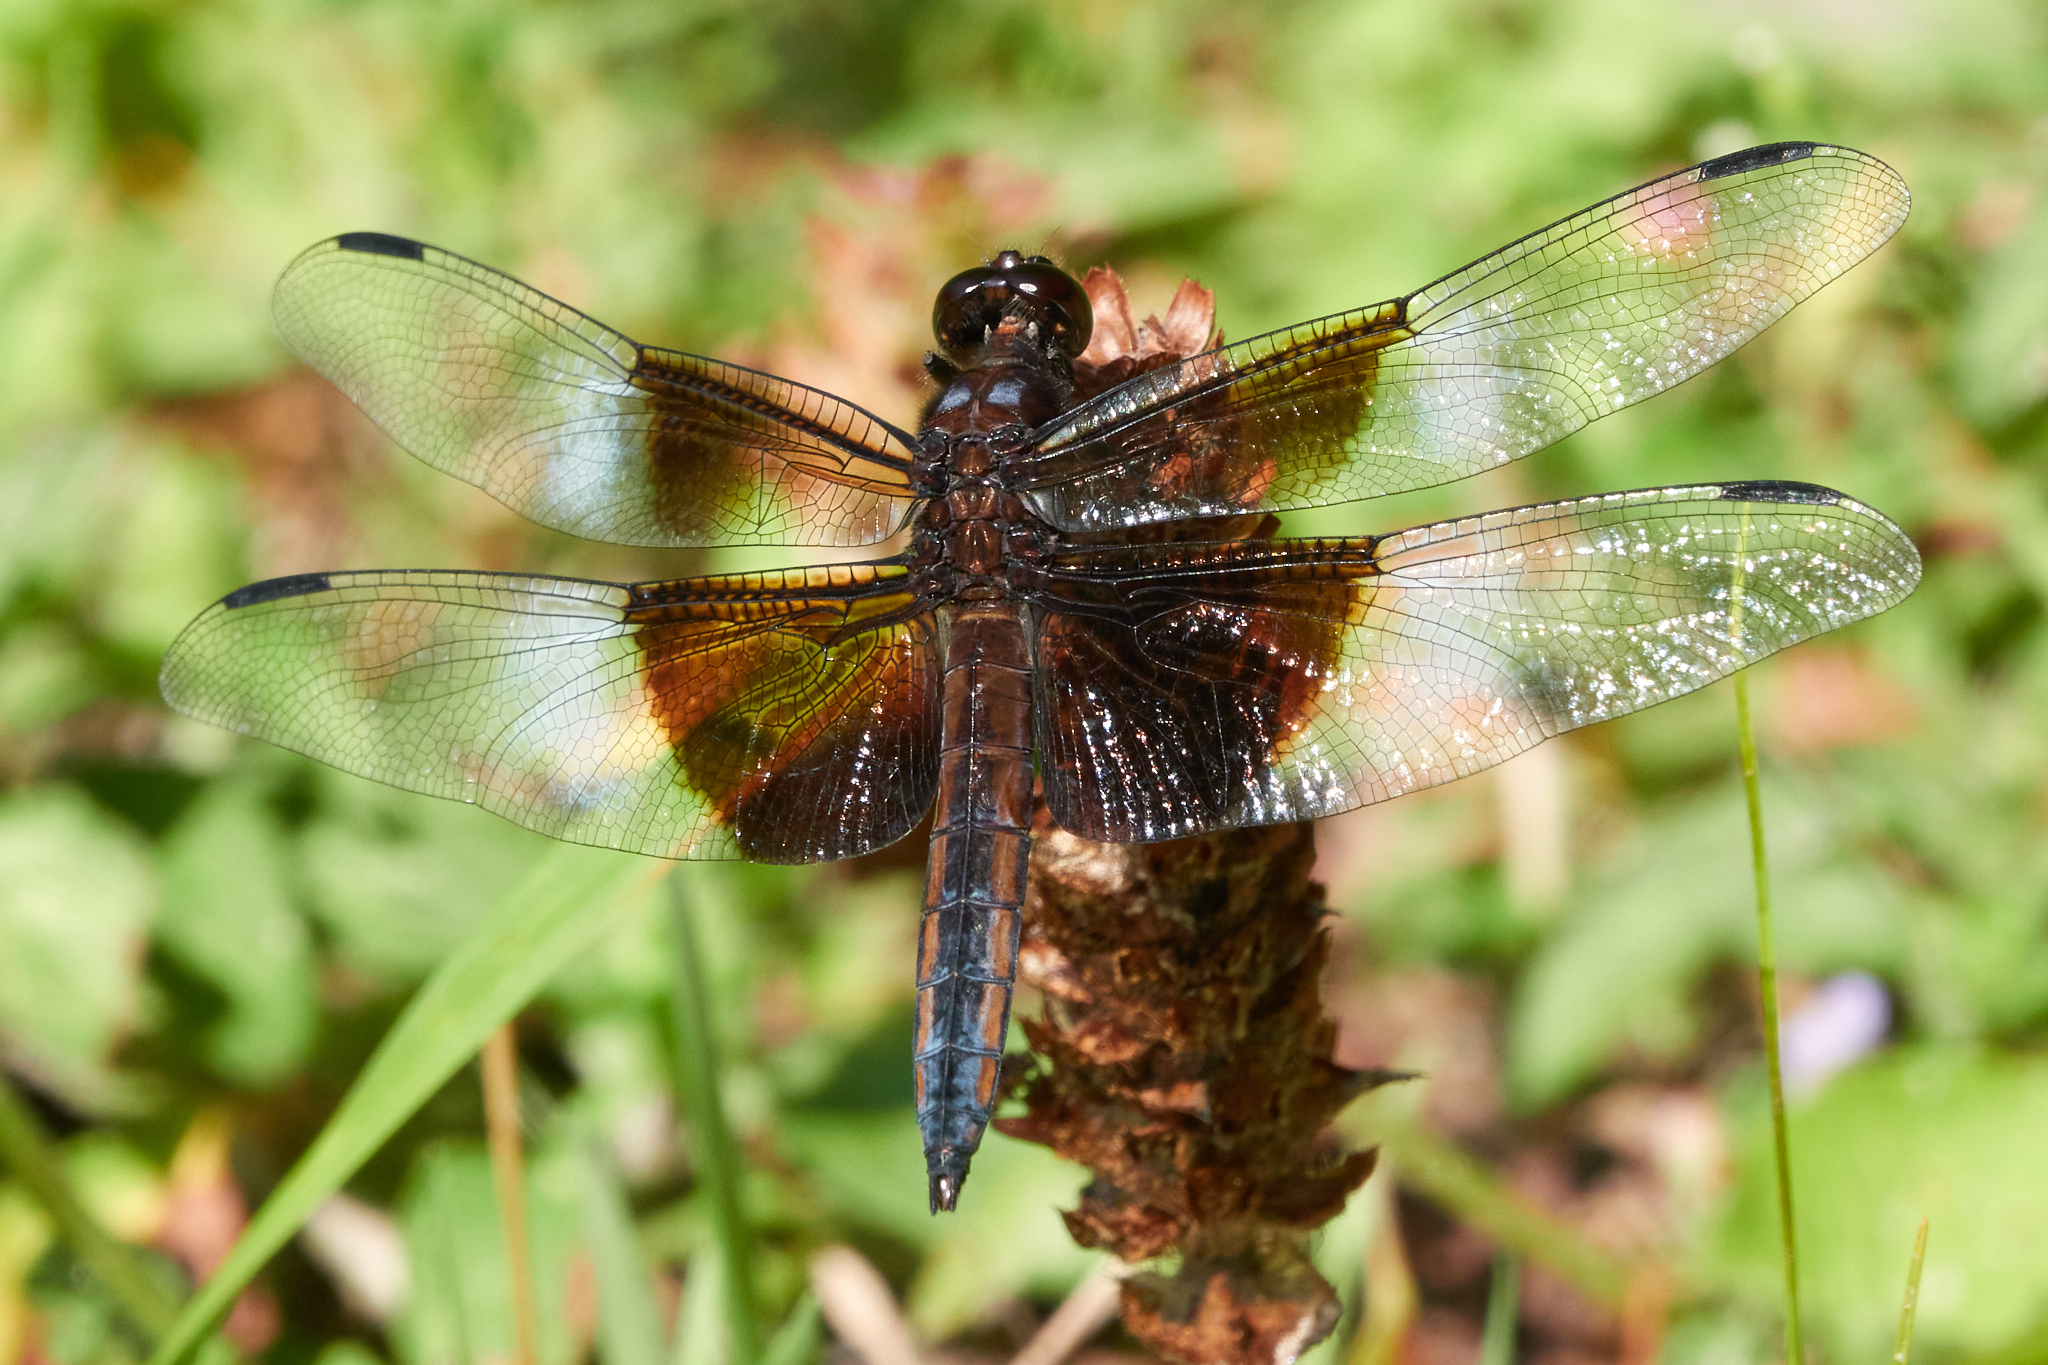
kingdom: Animalia
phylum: Arthropoda
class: Insecta
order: Odonata
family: Libellulidae
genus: Libellula
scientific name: Libellula luctuosa
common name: Widow skimmer
